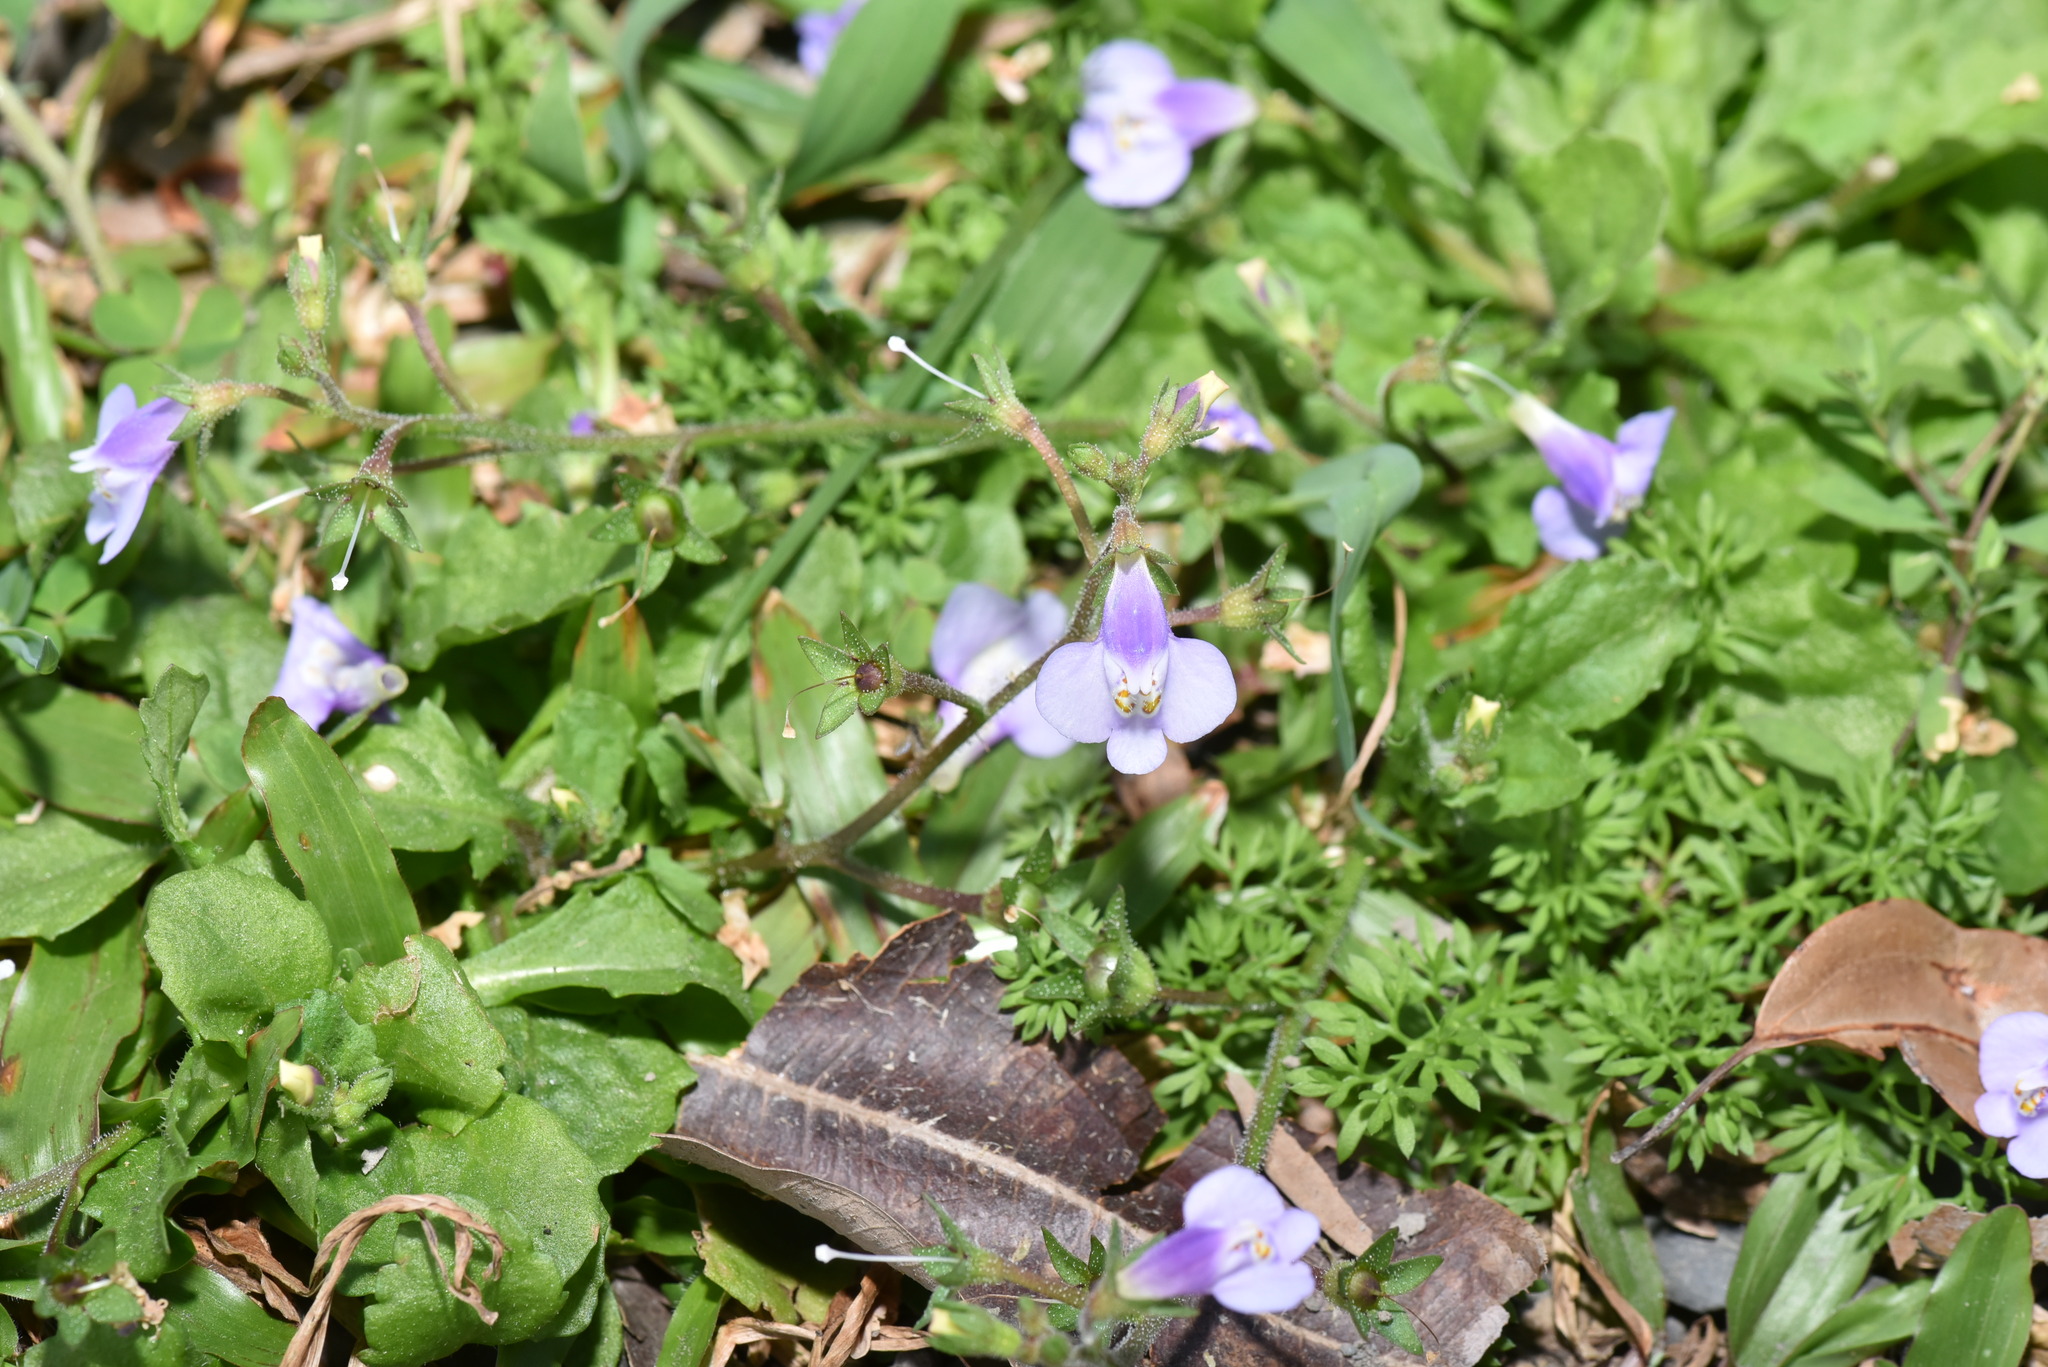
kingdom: Plantae
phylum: Tracheophyta
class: Magnoliopsida
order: Lamiales
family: Mazaceae
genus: Mazus
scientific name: Mazus pumilus
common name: Japanese mazus
